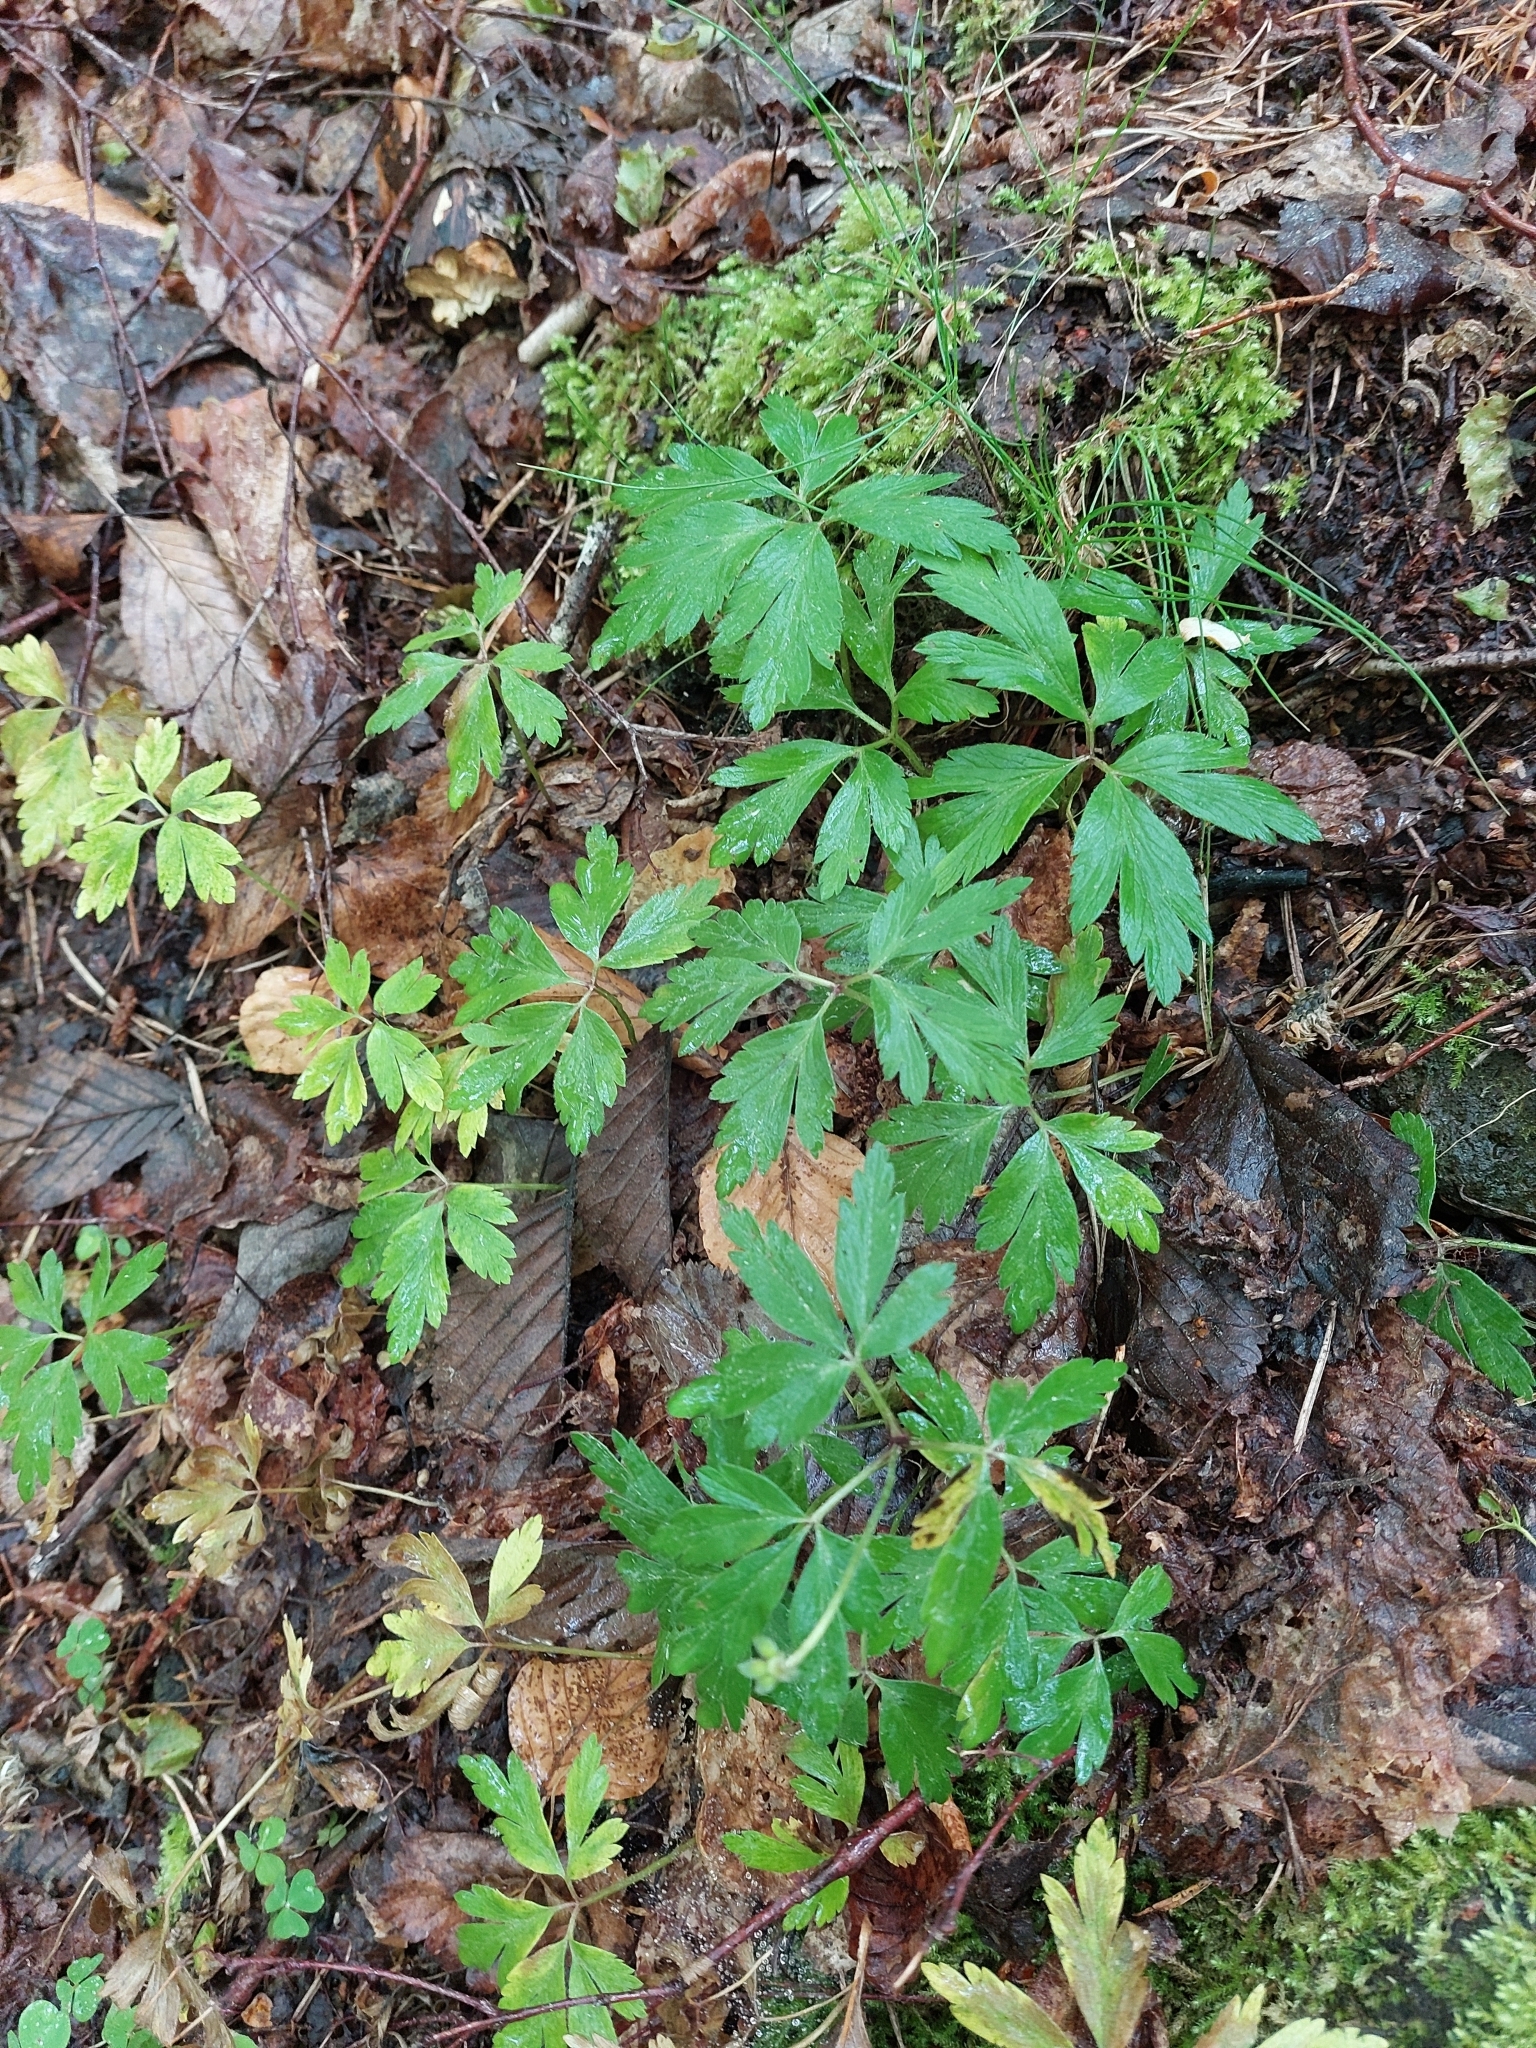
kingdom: Plantae
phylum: Tracheophyta
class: Magnoliopsida
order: Ranunculales
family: Ranunculaceae
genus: Anemone
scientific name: Anemone nemorosa
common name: Wood anemone
